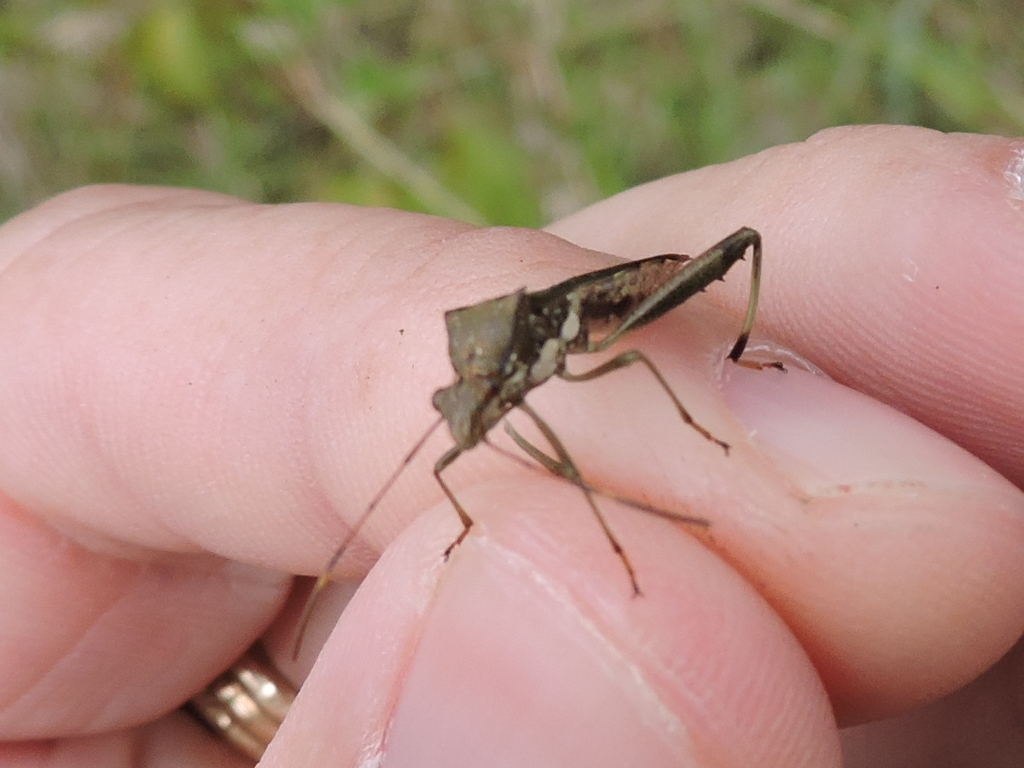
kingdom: Animalia
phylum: Arthropoda
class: Insecta
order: Hemiptera
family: Alydidae
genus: Hyalymenus
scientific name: Hyalymenus tarsatus
